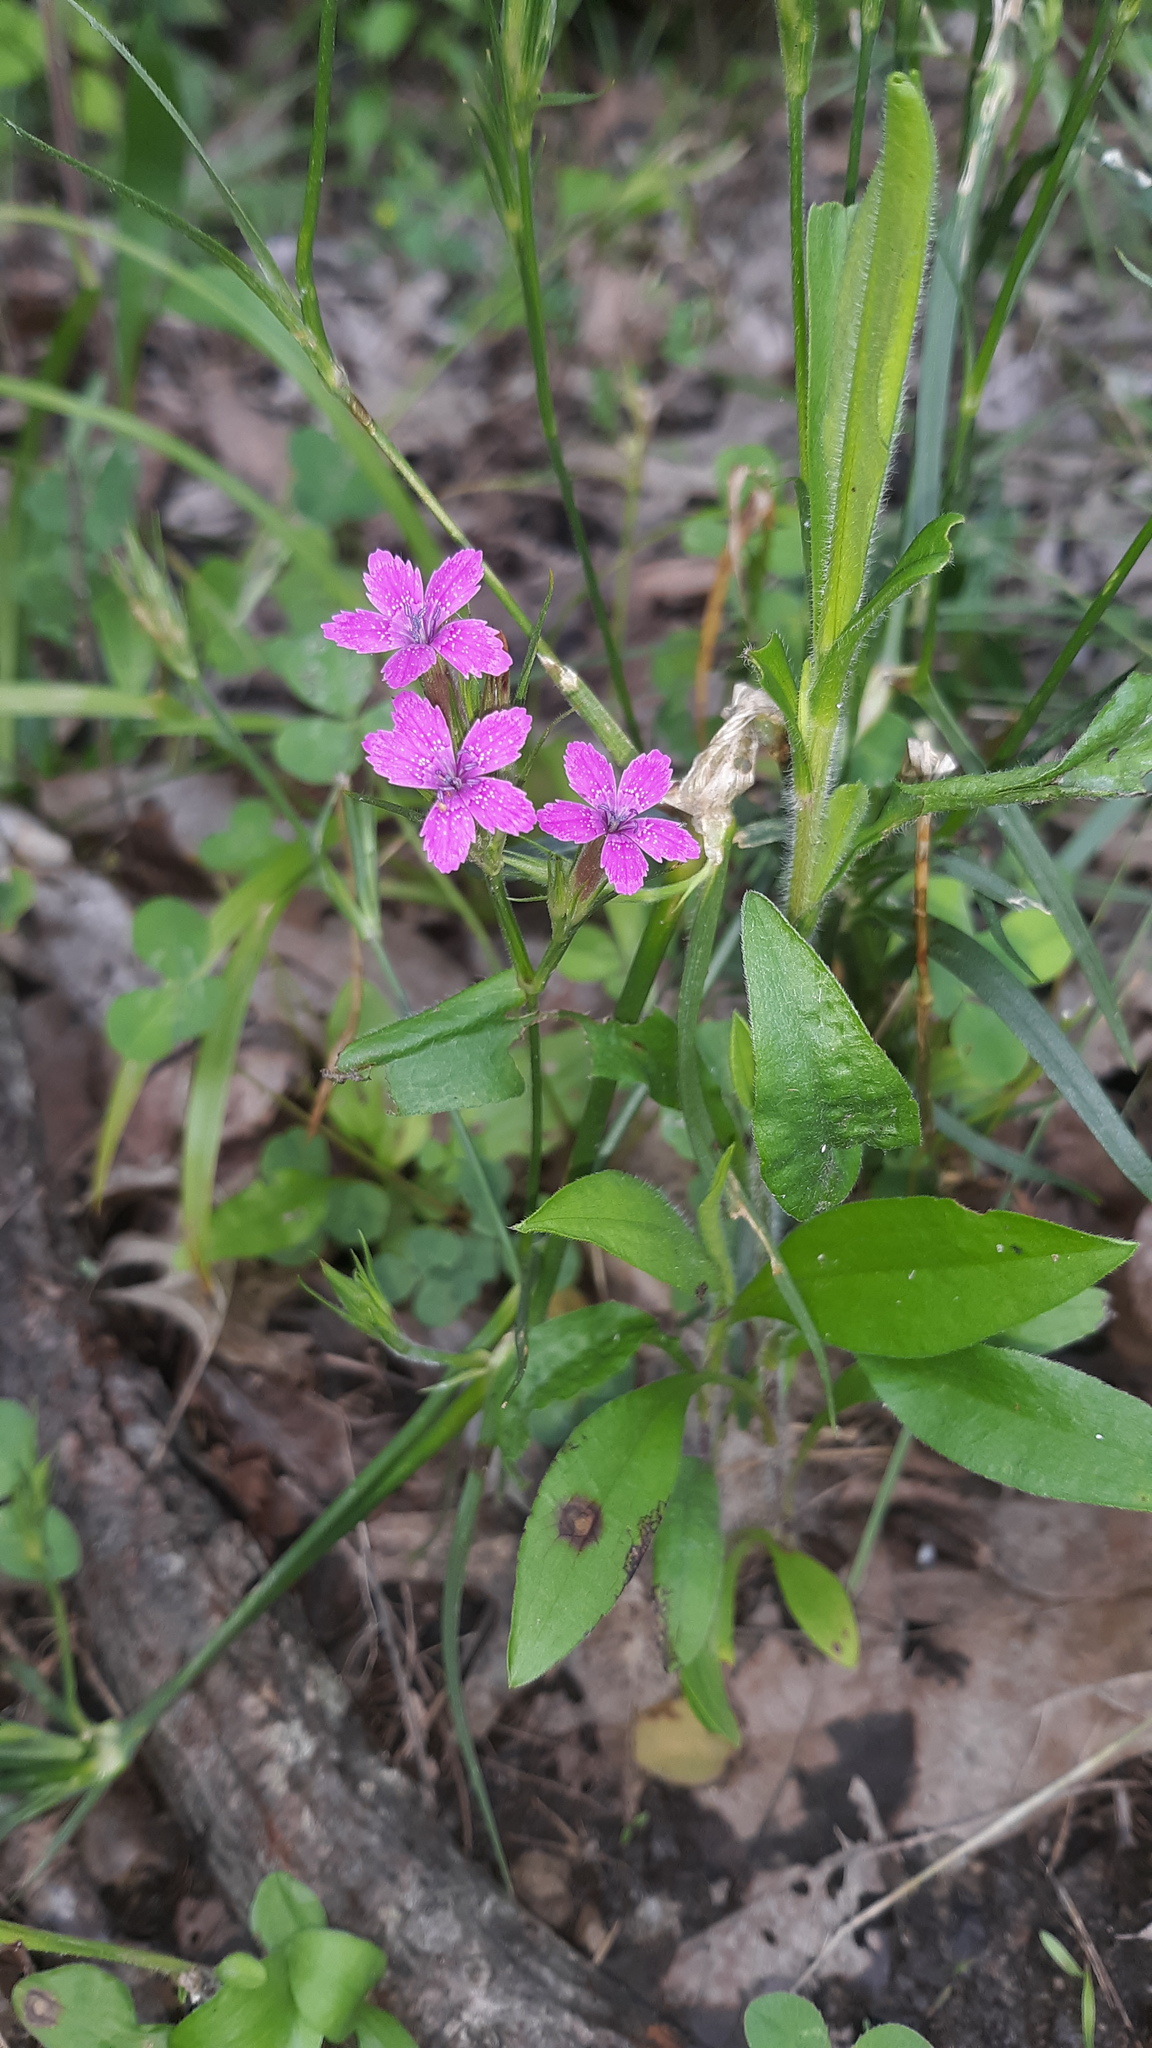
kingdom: Plantae
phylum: Tracheophyta
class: Magnoliopsida
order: Caryophyllales
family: Caryophyllaceae
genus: Dianthus
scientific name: Dianthus armeria
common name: Deptford pink
